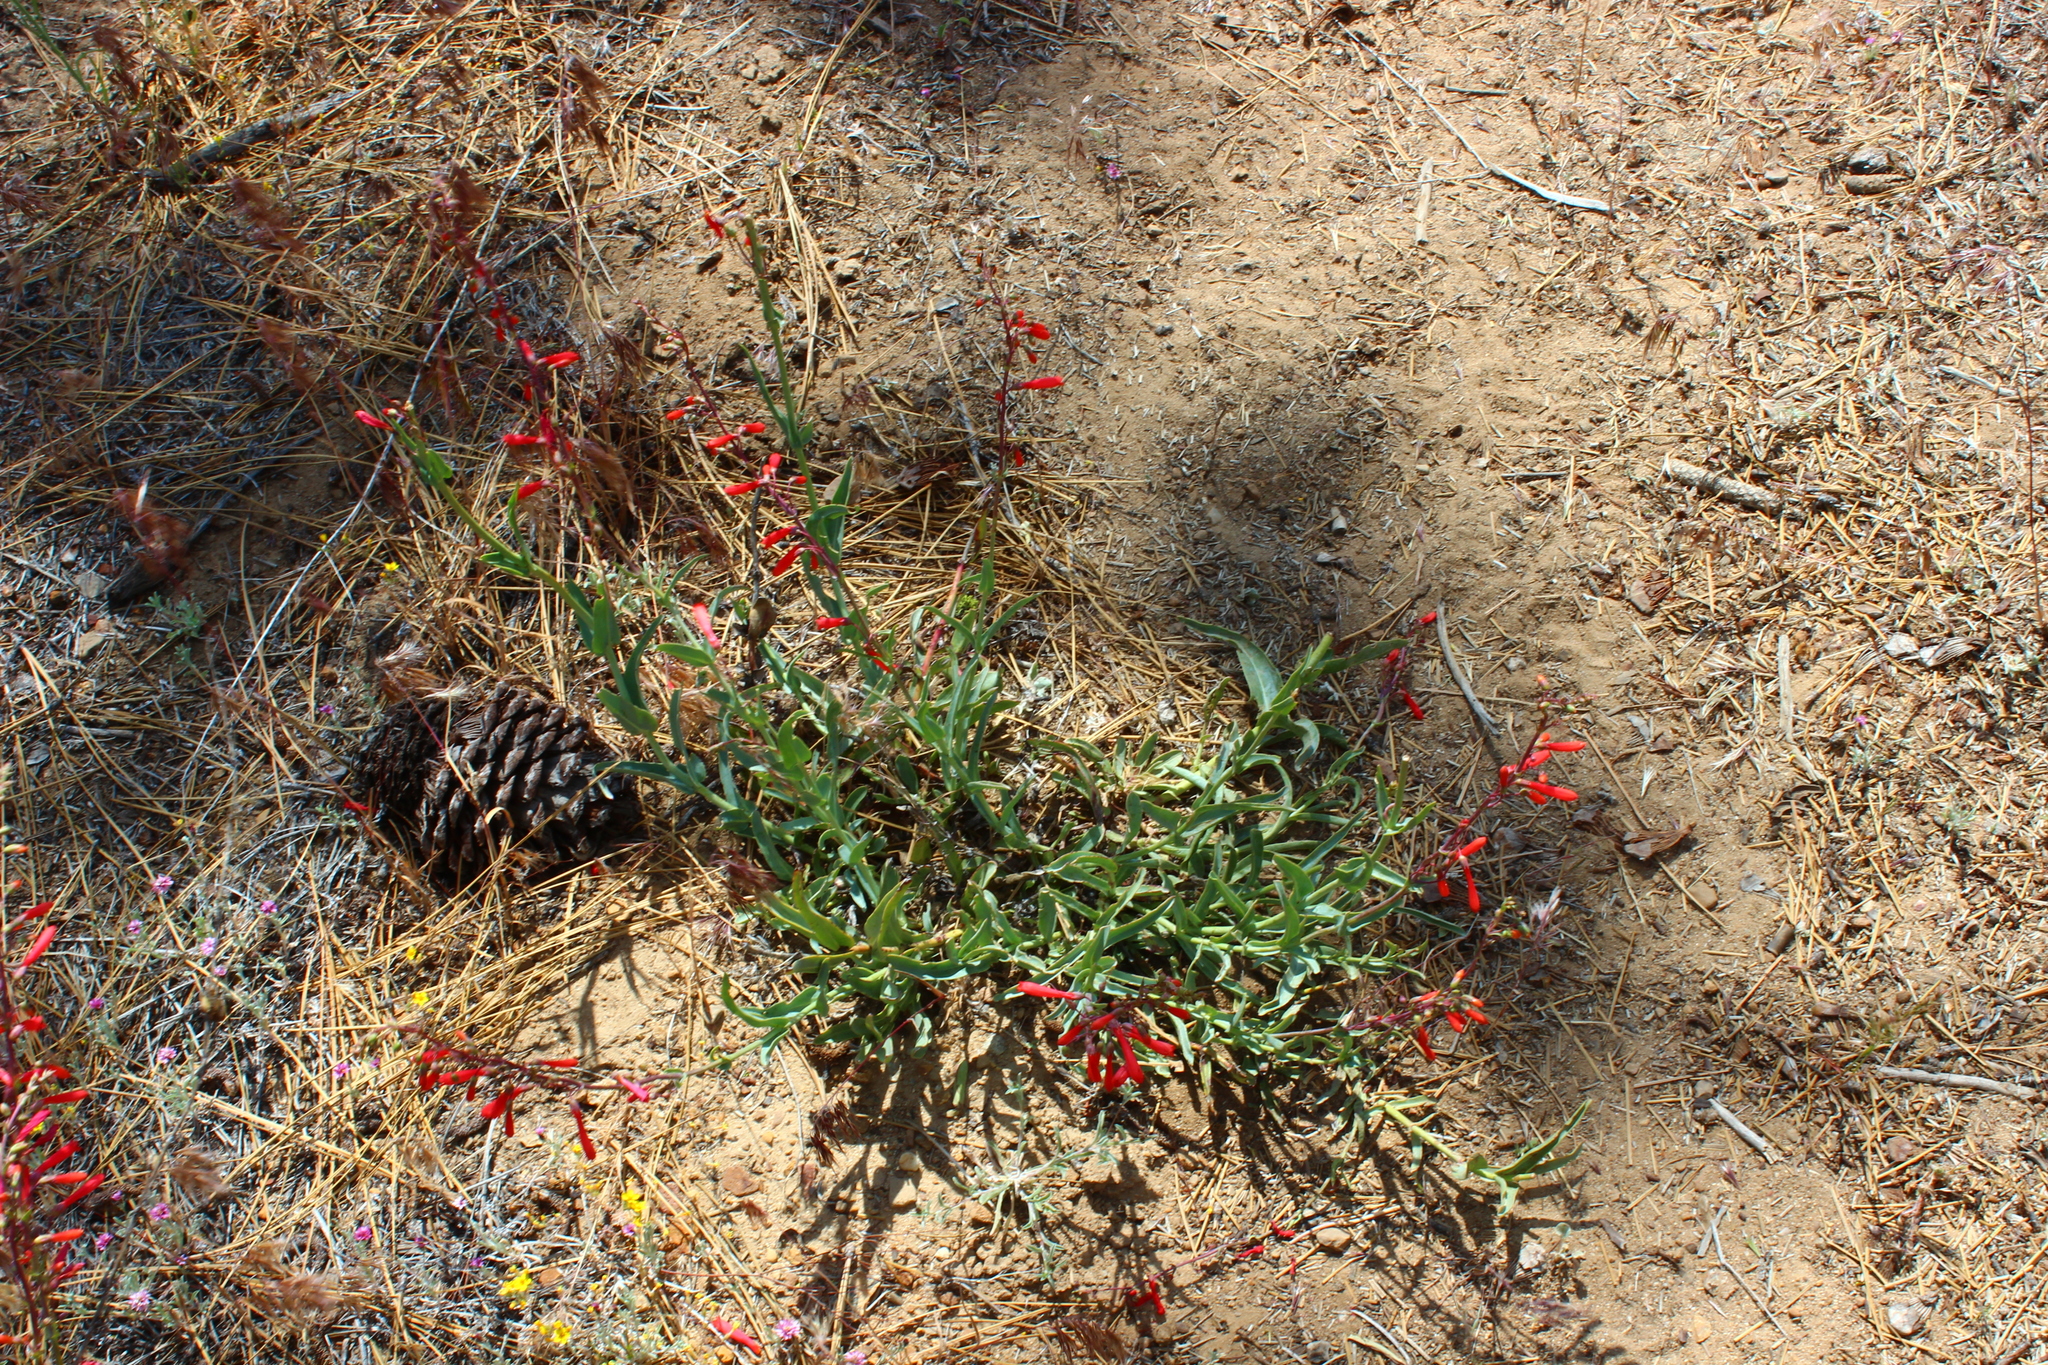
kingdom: Plantae
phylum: Tracheophyta
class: Magnoliopsida
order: Lamiales
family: Plantaginaceae
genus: Penstemon
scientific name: Penstemon centranthifolius
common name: Scarlet bugler
